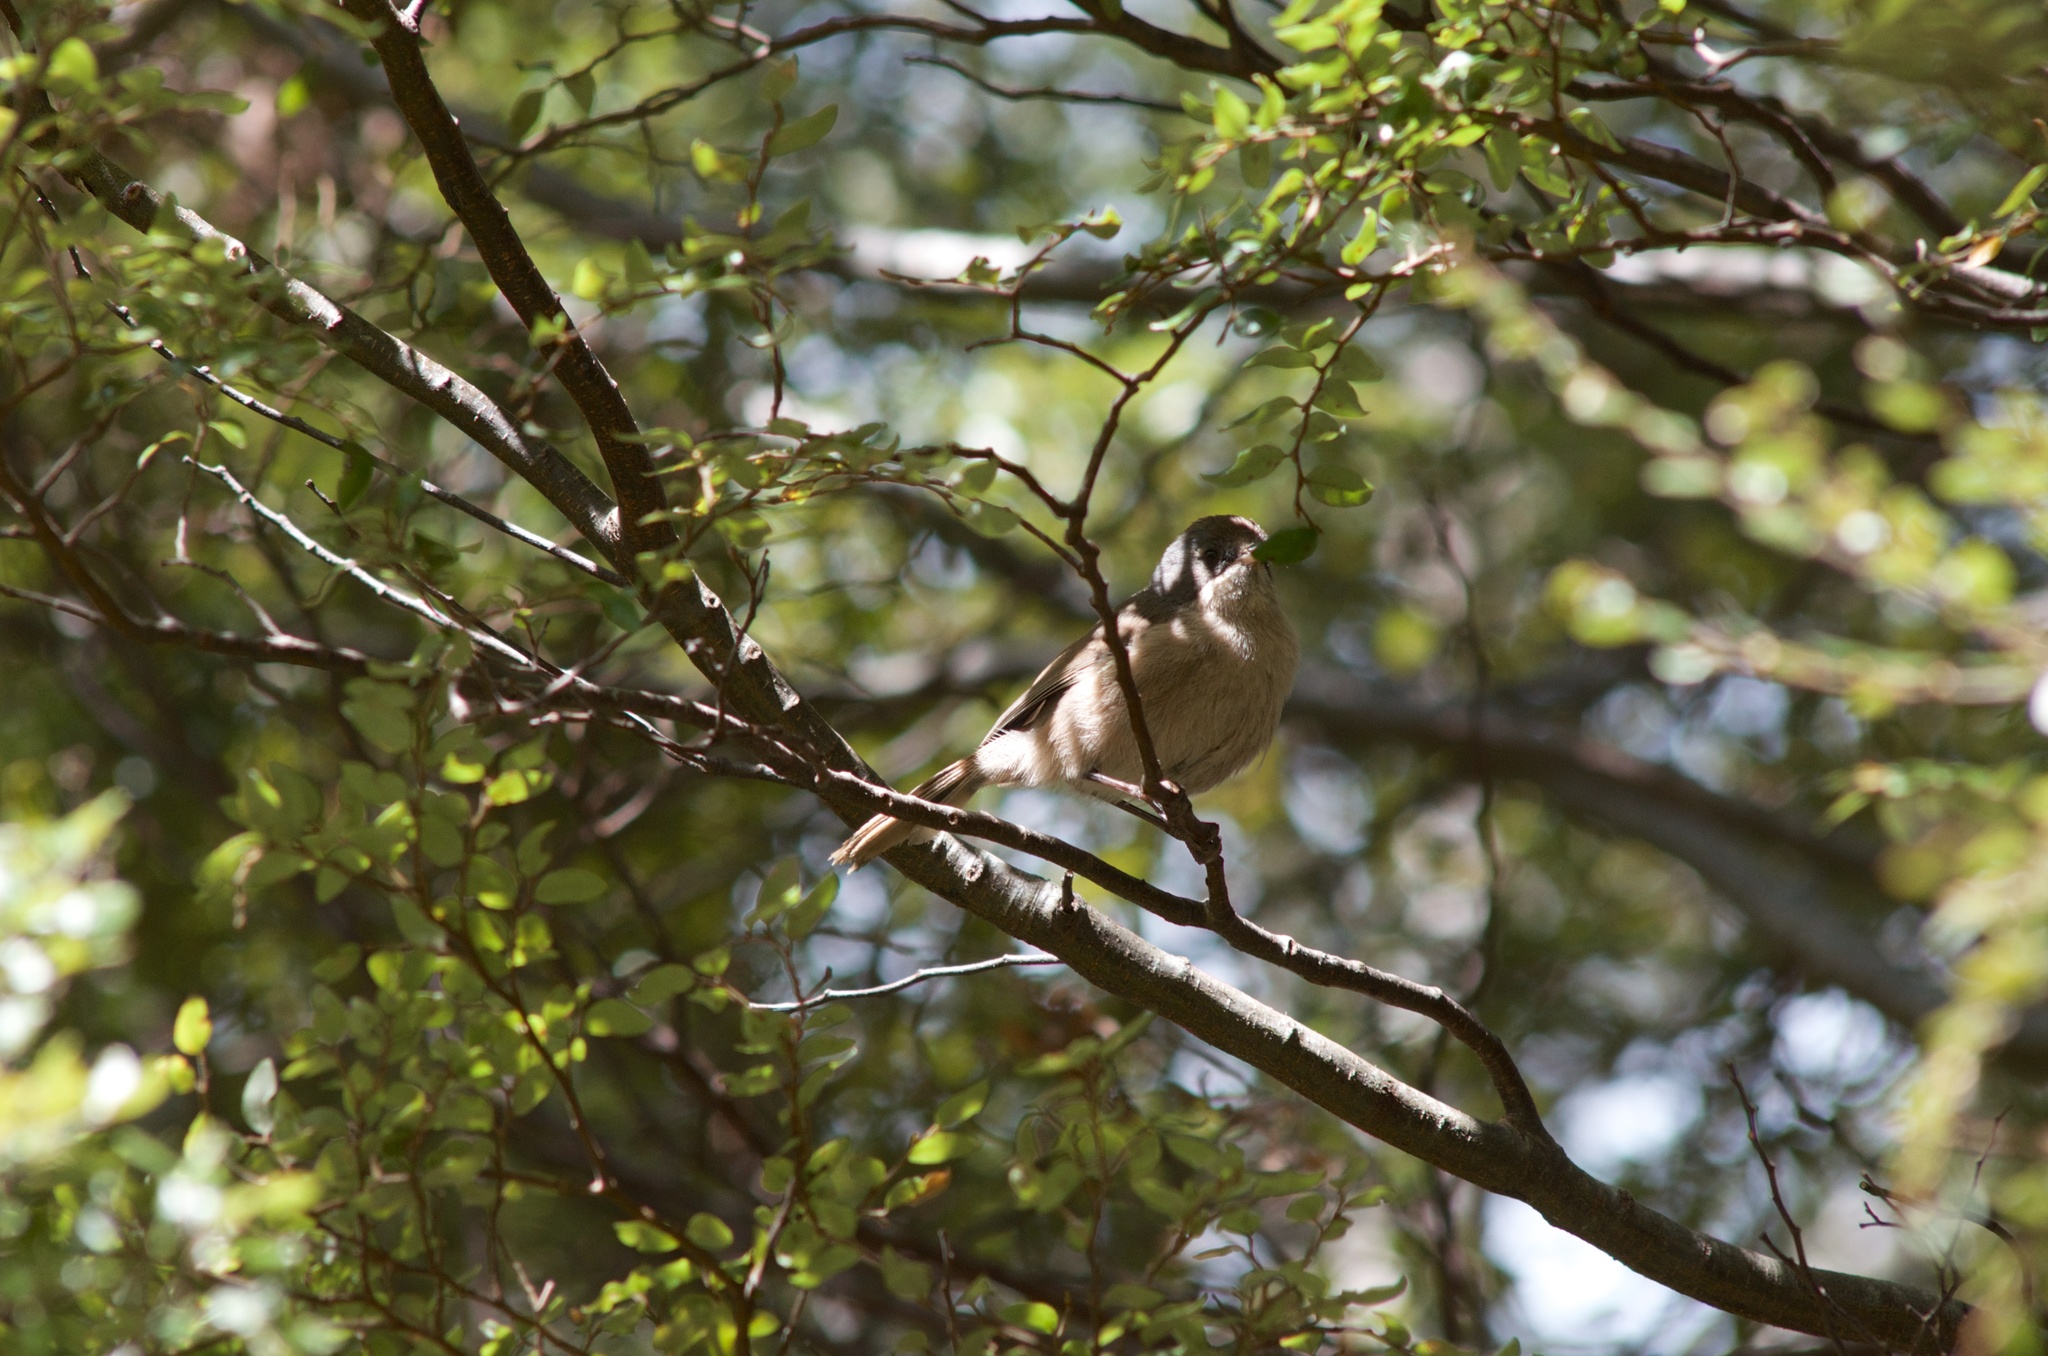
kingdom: Animalia
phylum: Chordata
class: Aves
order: Passeriformes
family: Acanthizidae
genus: Finschia
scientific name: Finschia novaeseelandiae
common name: Pipipi
